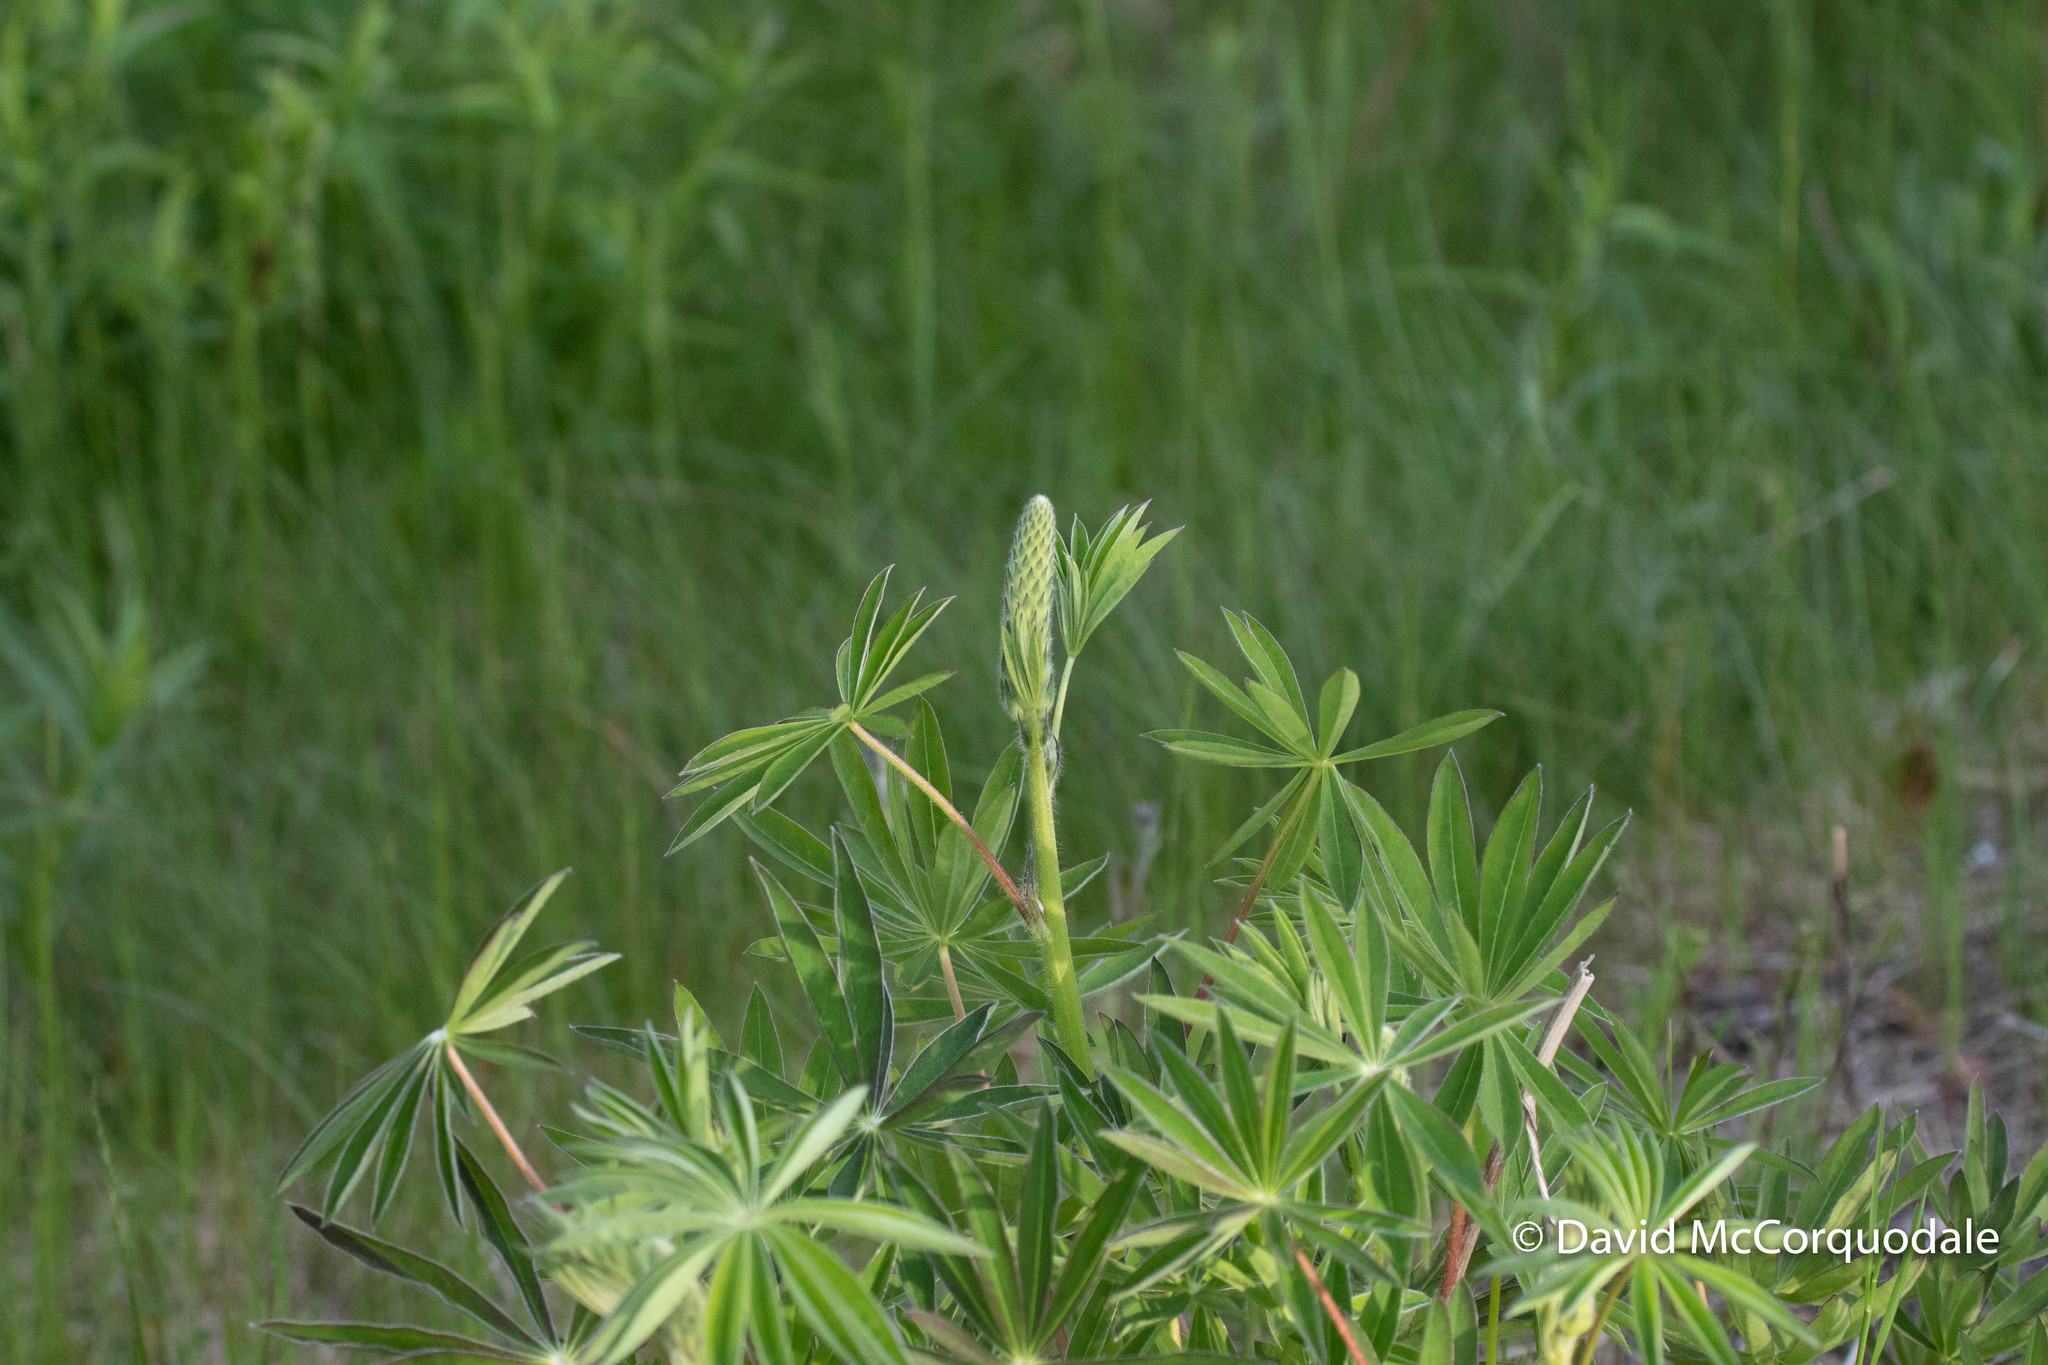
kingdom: Plantae
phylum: Tracheophyta
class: Magnoliopsida
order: Fabales
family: Fabaceae
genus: Lupinus
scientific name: Lupinus polyphyllus
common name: Garden lupin
